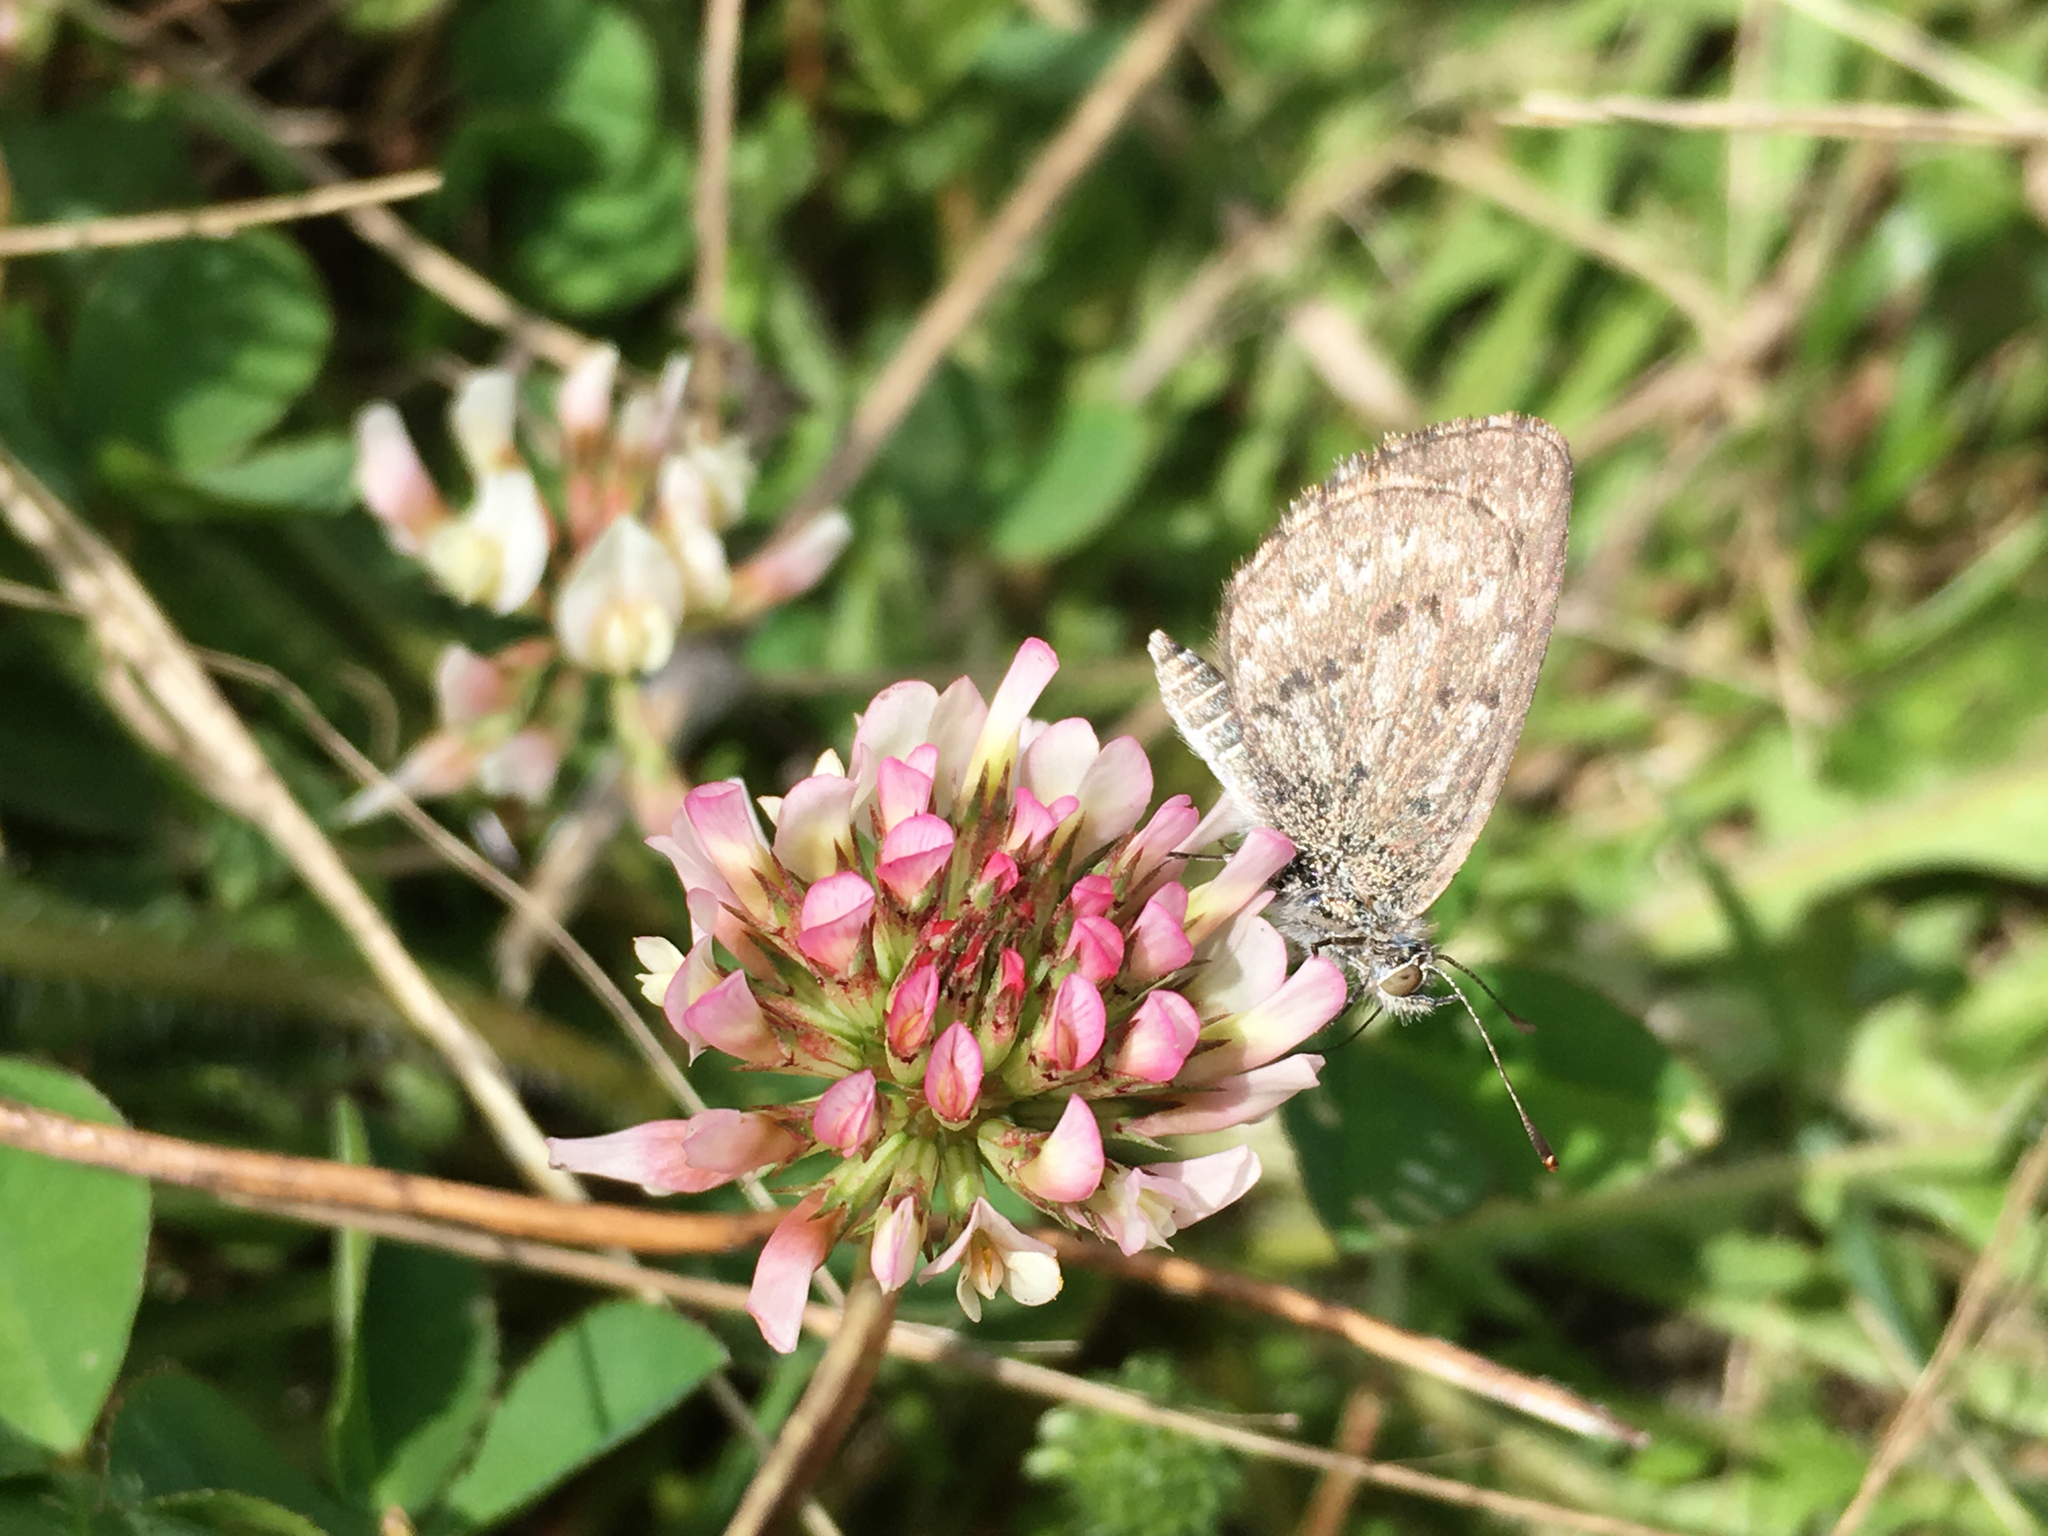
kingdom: Animalia
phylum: Arthropoda
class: Insecta
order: Lepidoptera
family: Lycaenidae
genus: Zizina
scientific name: Zizina oxleyi
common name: Southern blue
